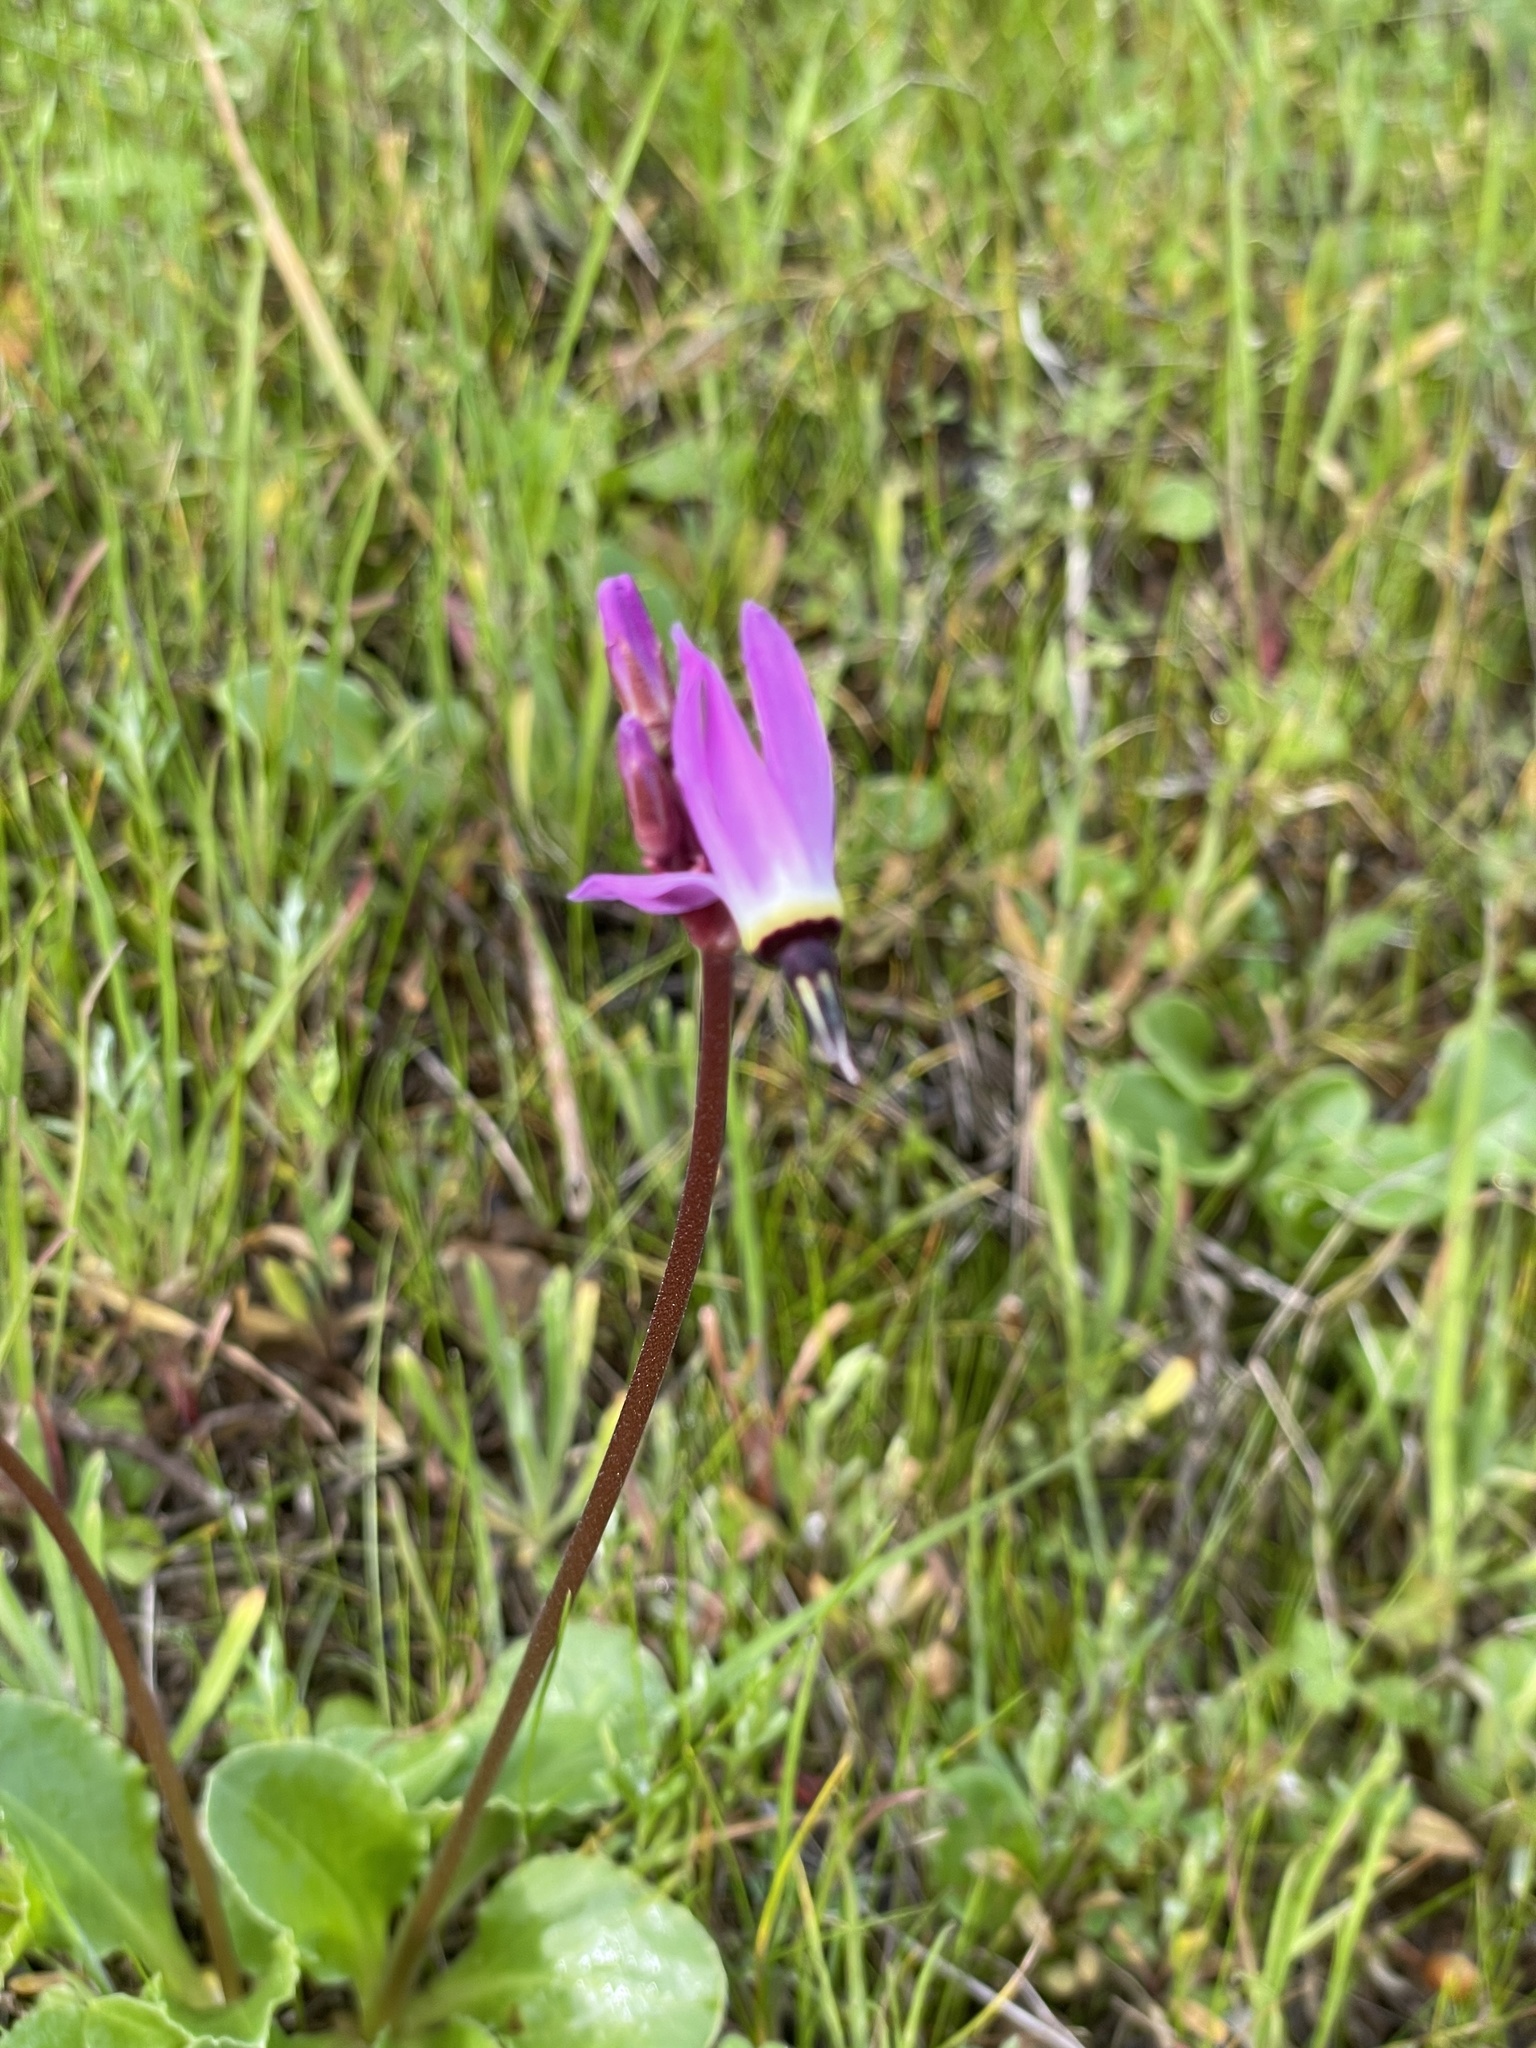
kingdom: Plantae
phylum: Tracheophyta
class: Magnoliopsida
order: Ericales
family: Primulaceae
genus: Dodecatheon
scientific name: Dodecatheon hendersonii
